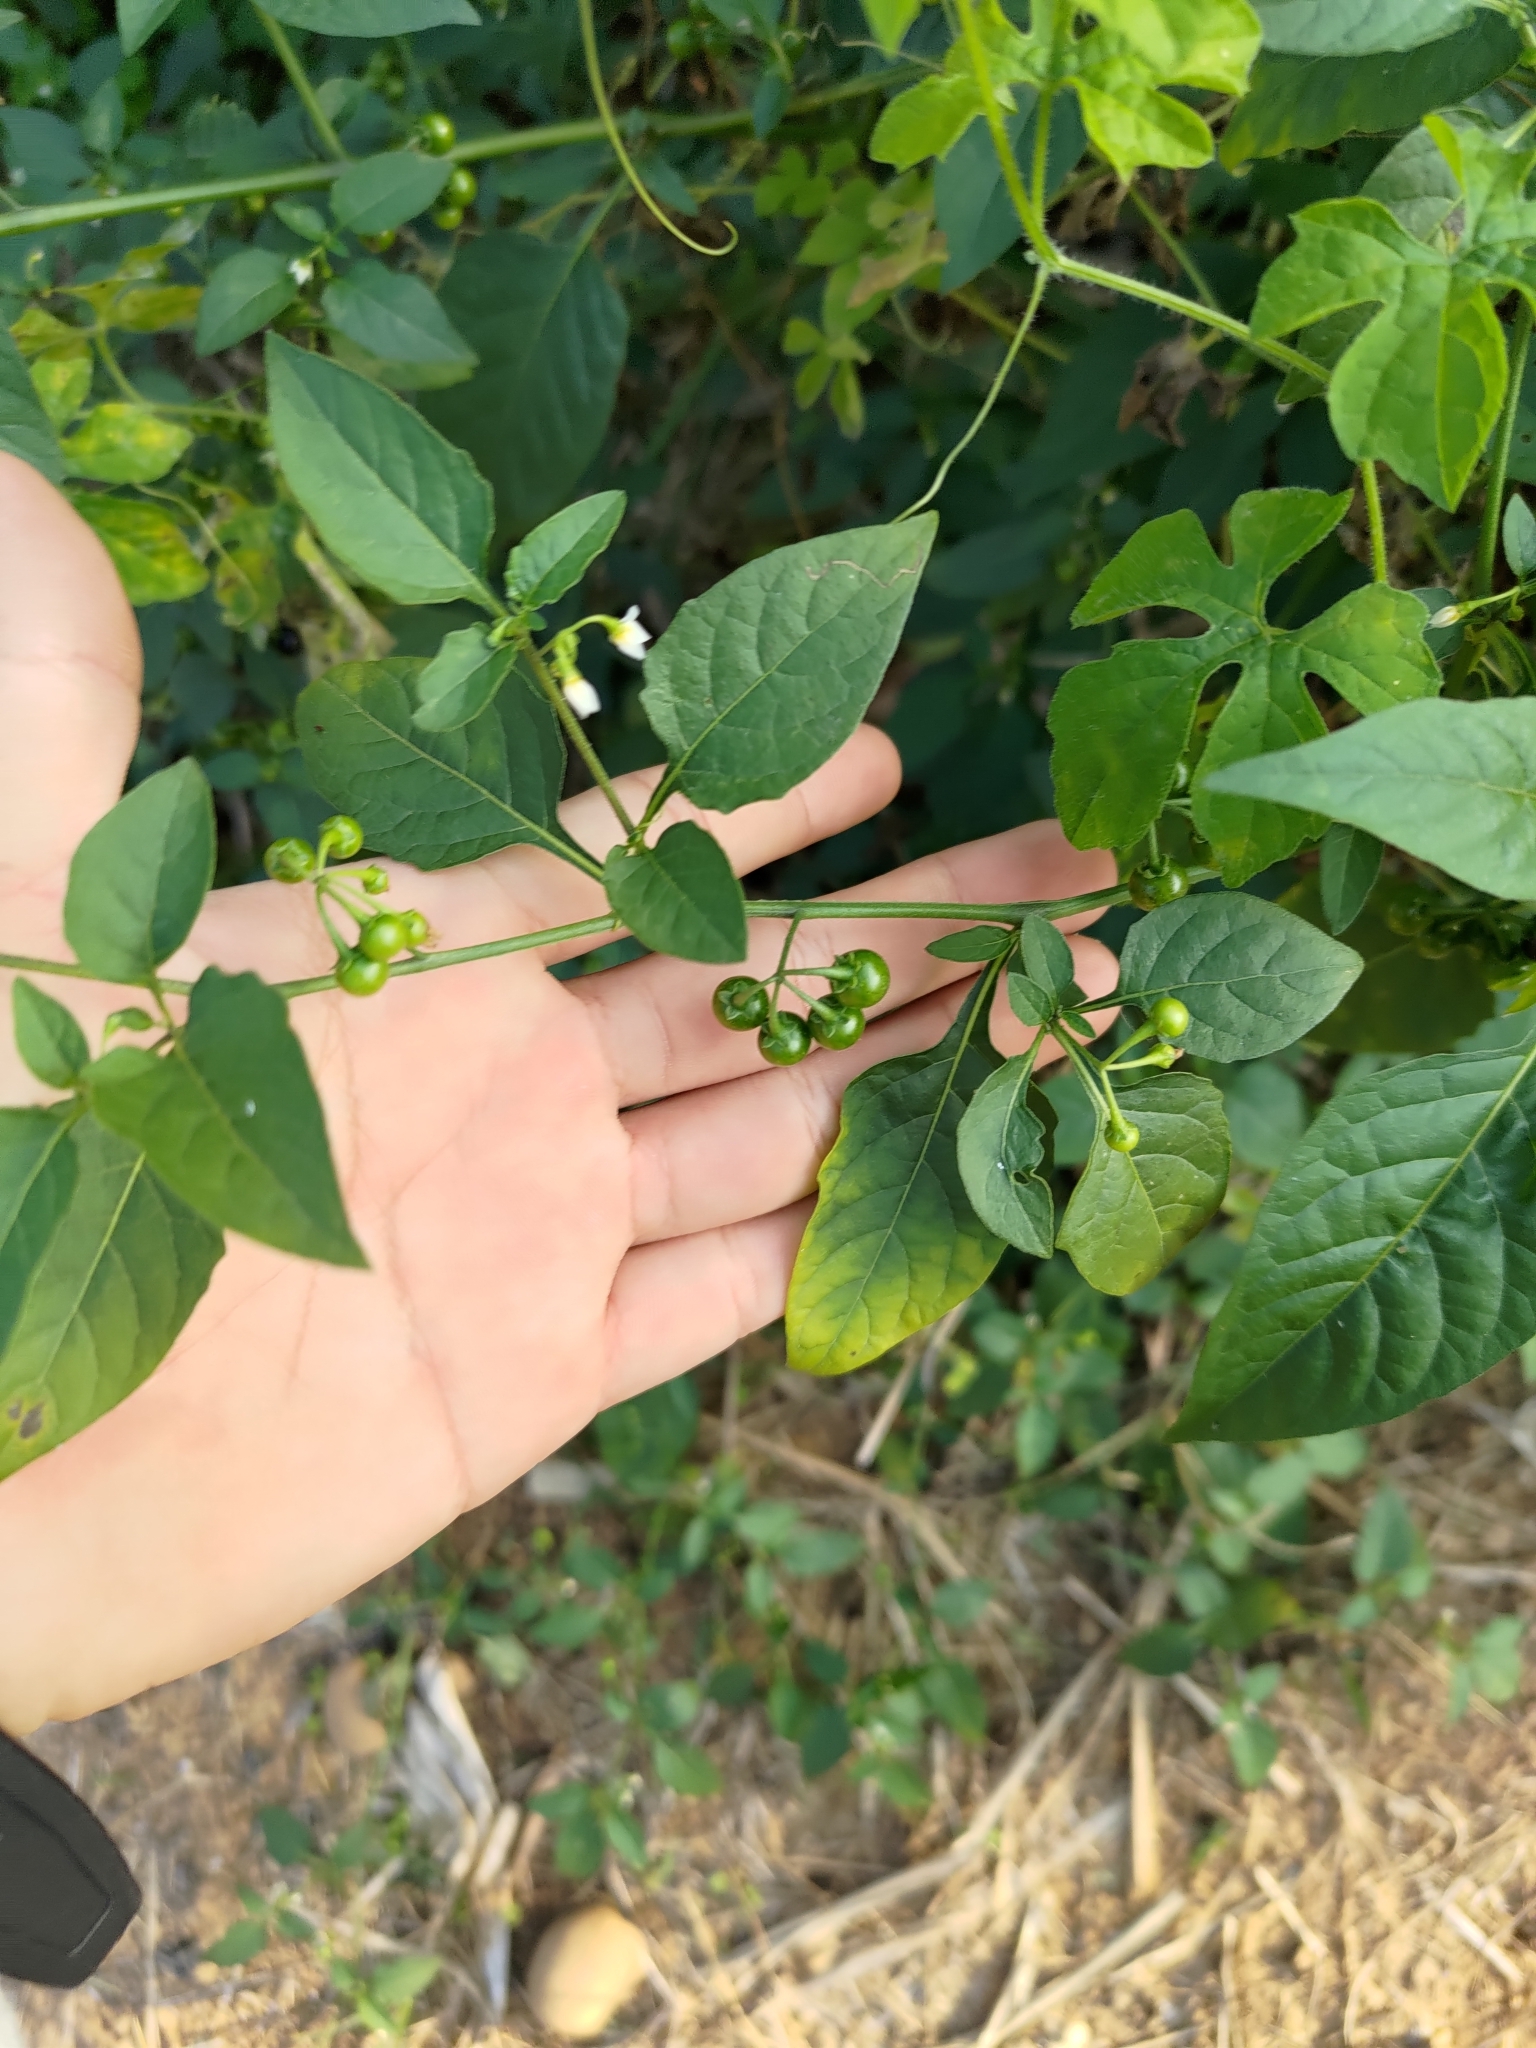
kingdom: Plantae
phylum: Tracheophyta
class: Magnoliopsida
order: Solanales
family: Solanaceae
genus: Solanum
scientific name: Solanum americanum
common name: American black nightshade
